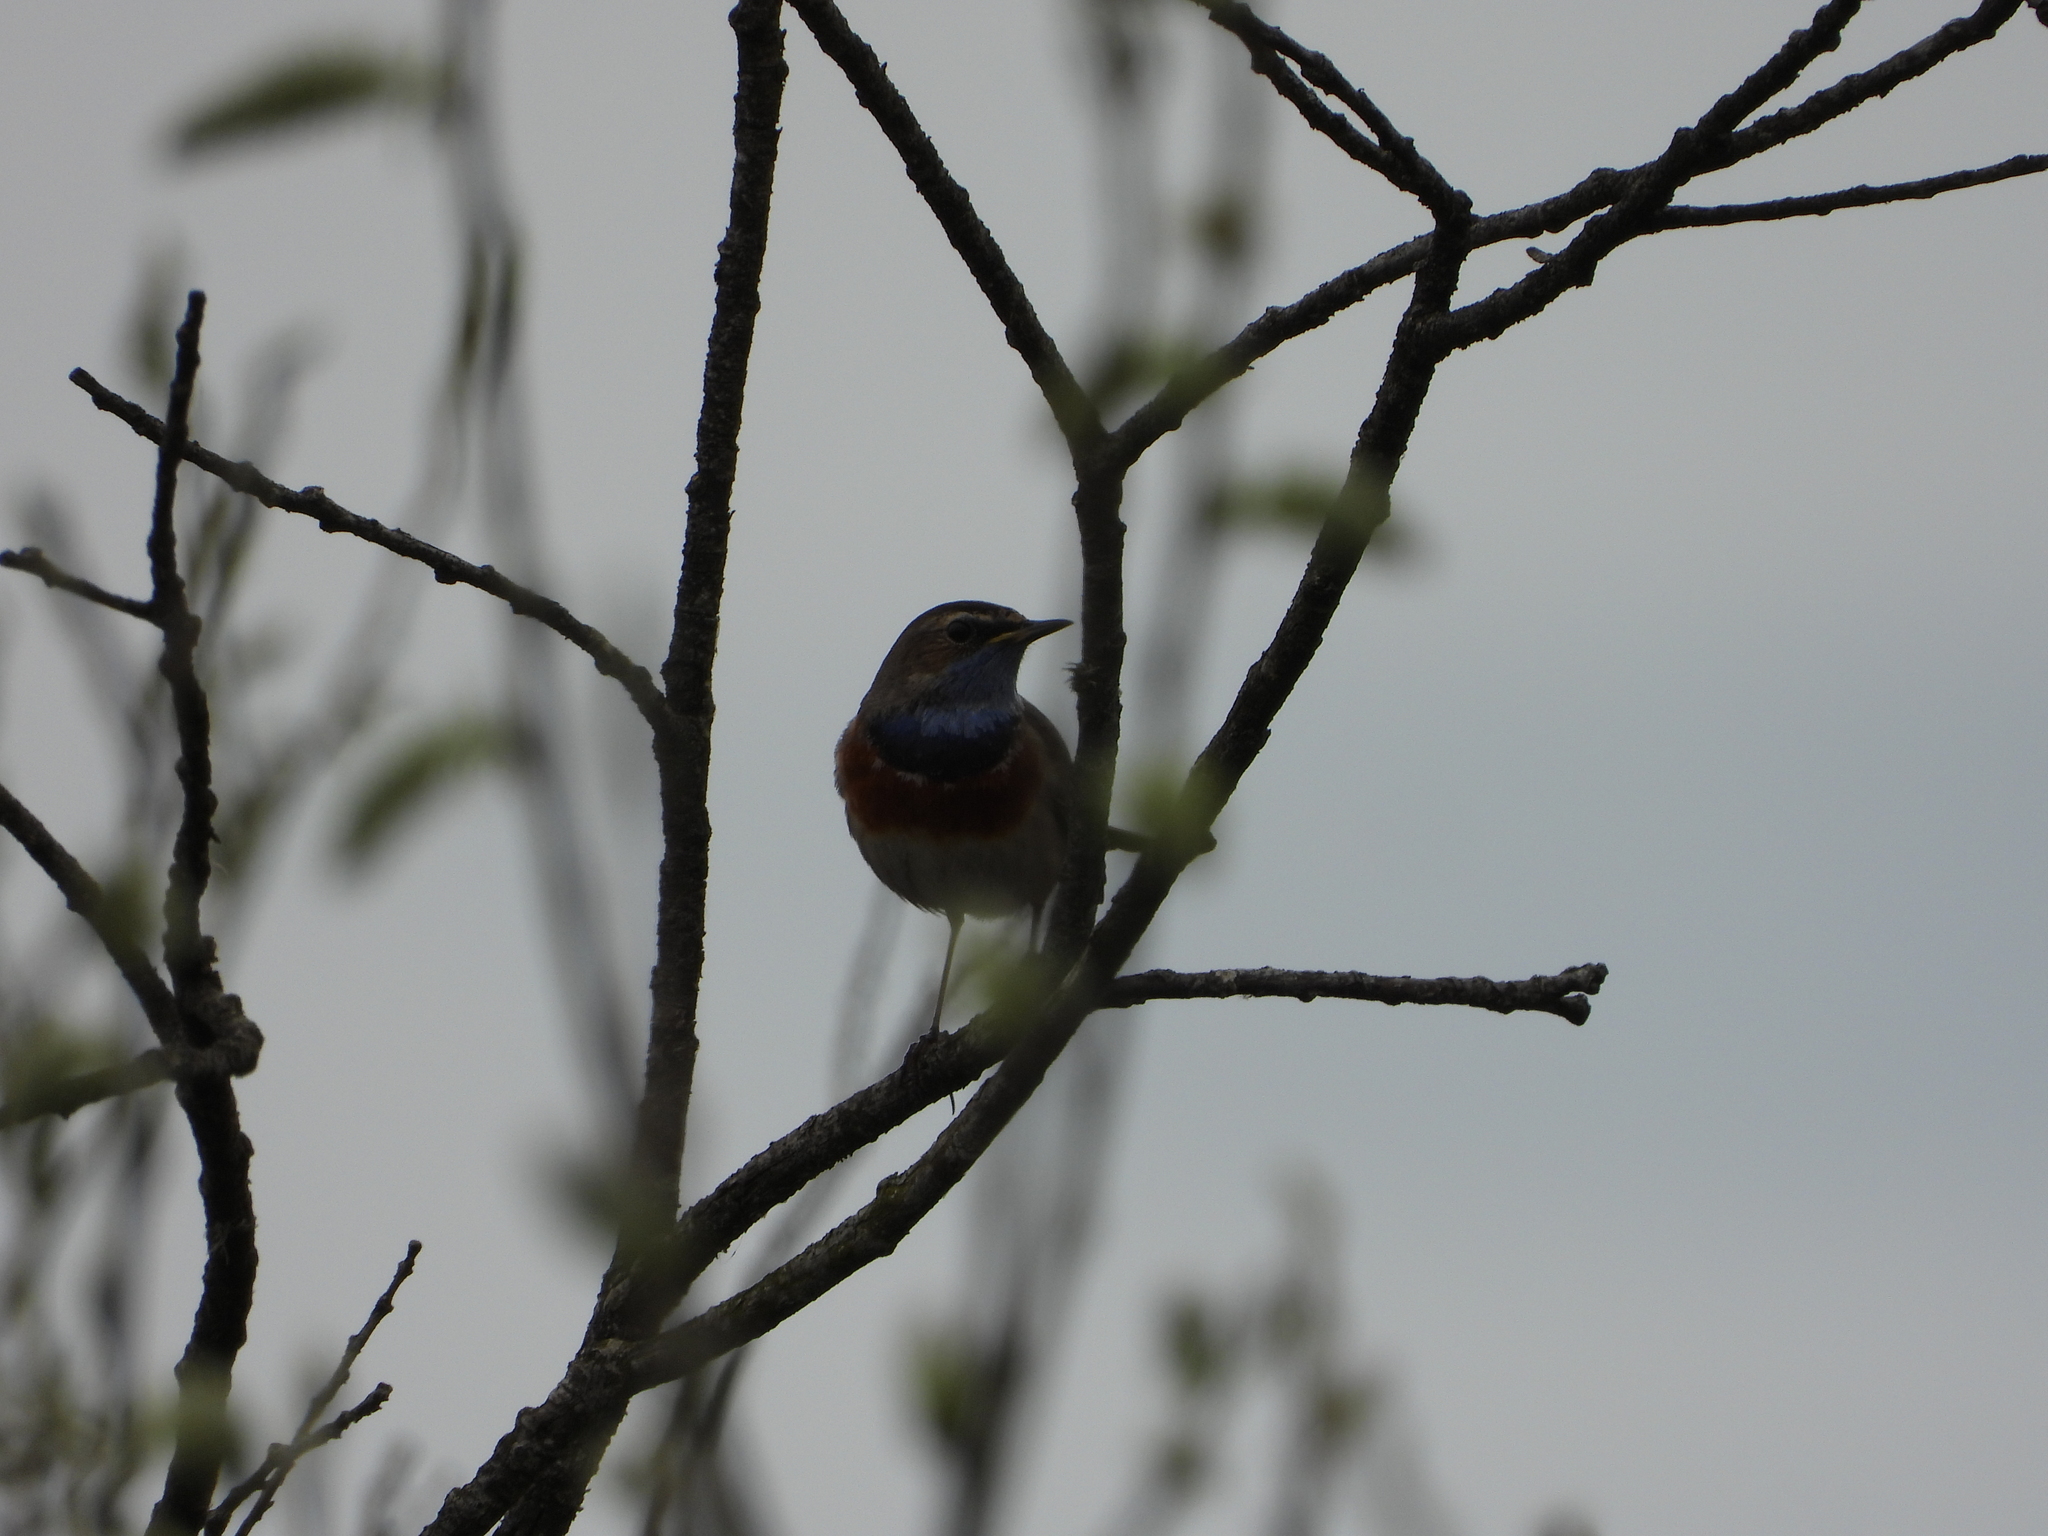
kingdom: Animalia
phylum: Chordata
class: Aves
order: Passeriformes
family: Muscicapidae
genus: Luscinia
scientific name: Luscinia svecica
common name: Bluethroat
